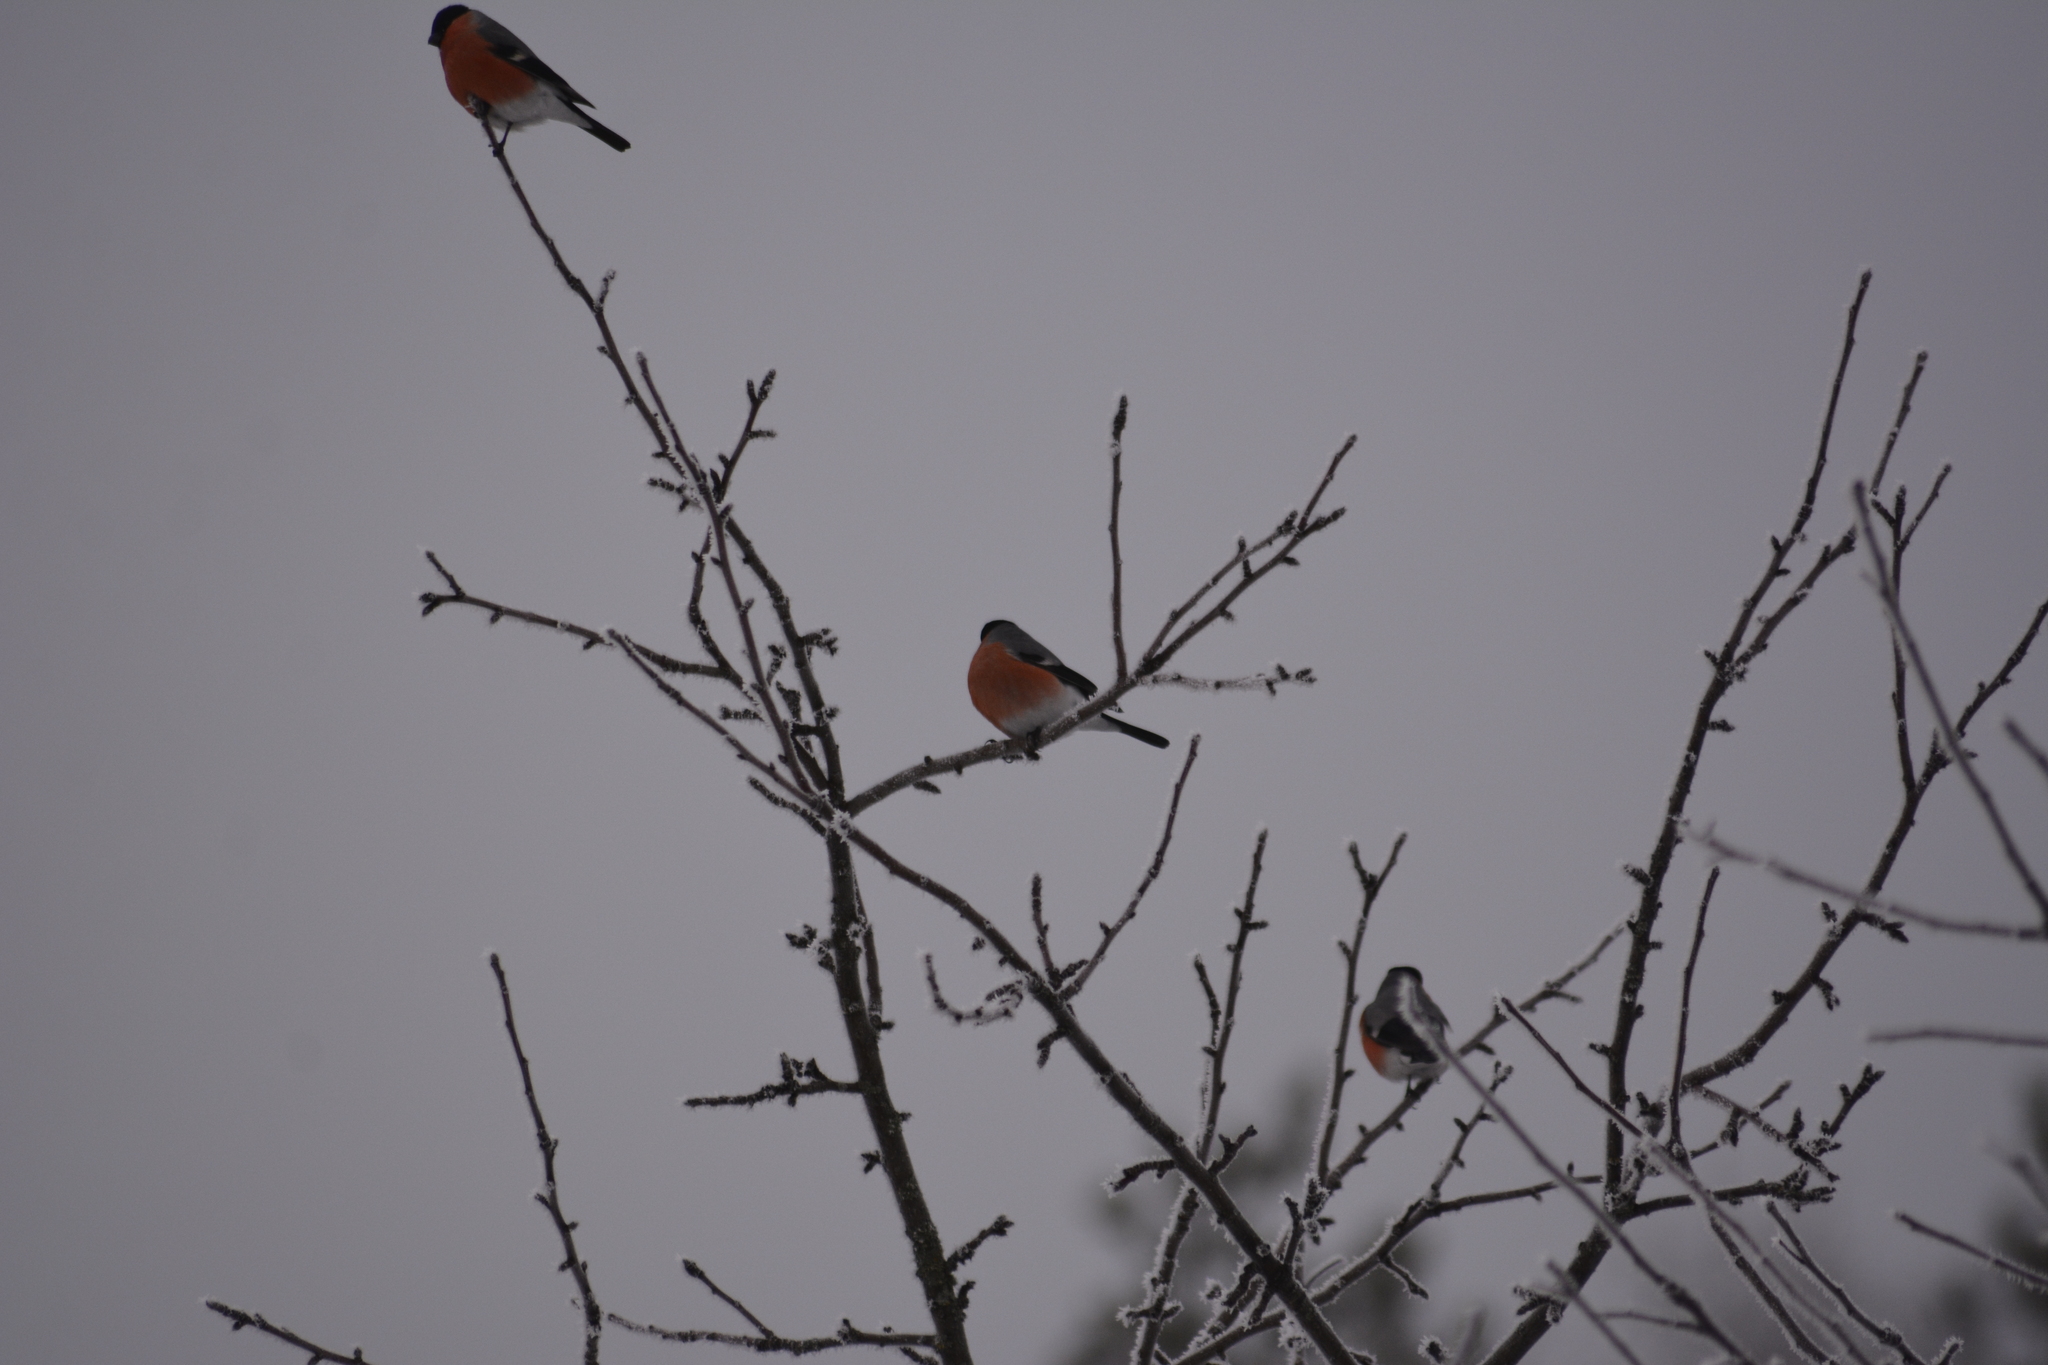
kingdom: Animalia
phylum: Chordata
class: Aves
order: Passeriformes
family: Fringillidae
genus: Pyrrhula
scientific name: Pyrrhula pyrrhula
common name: Eurasian bullfinch
